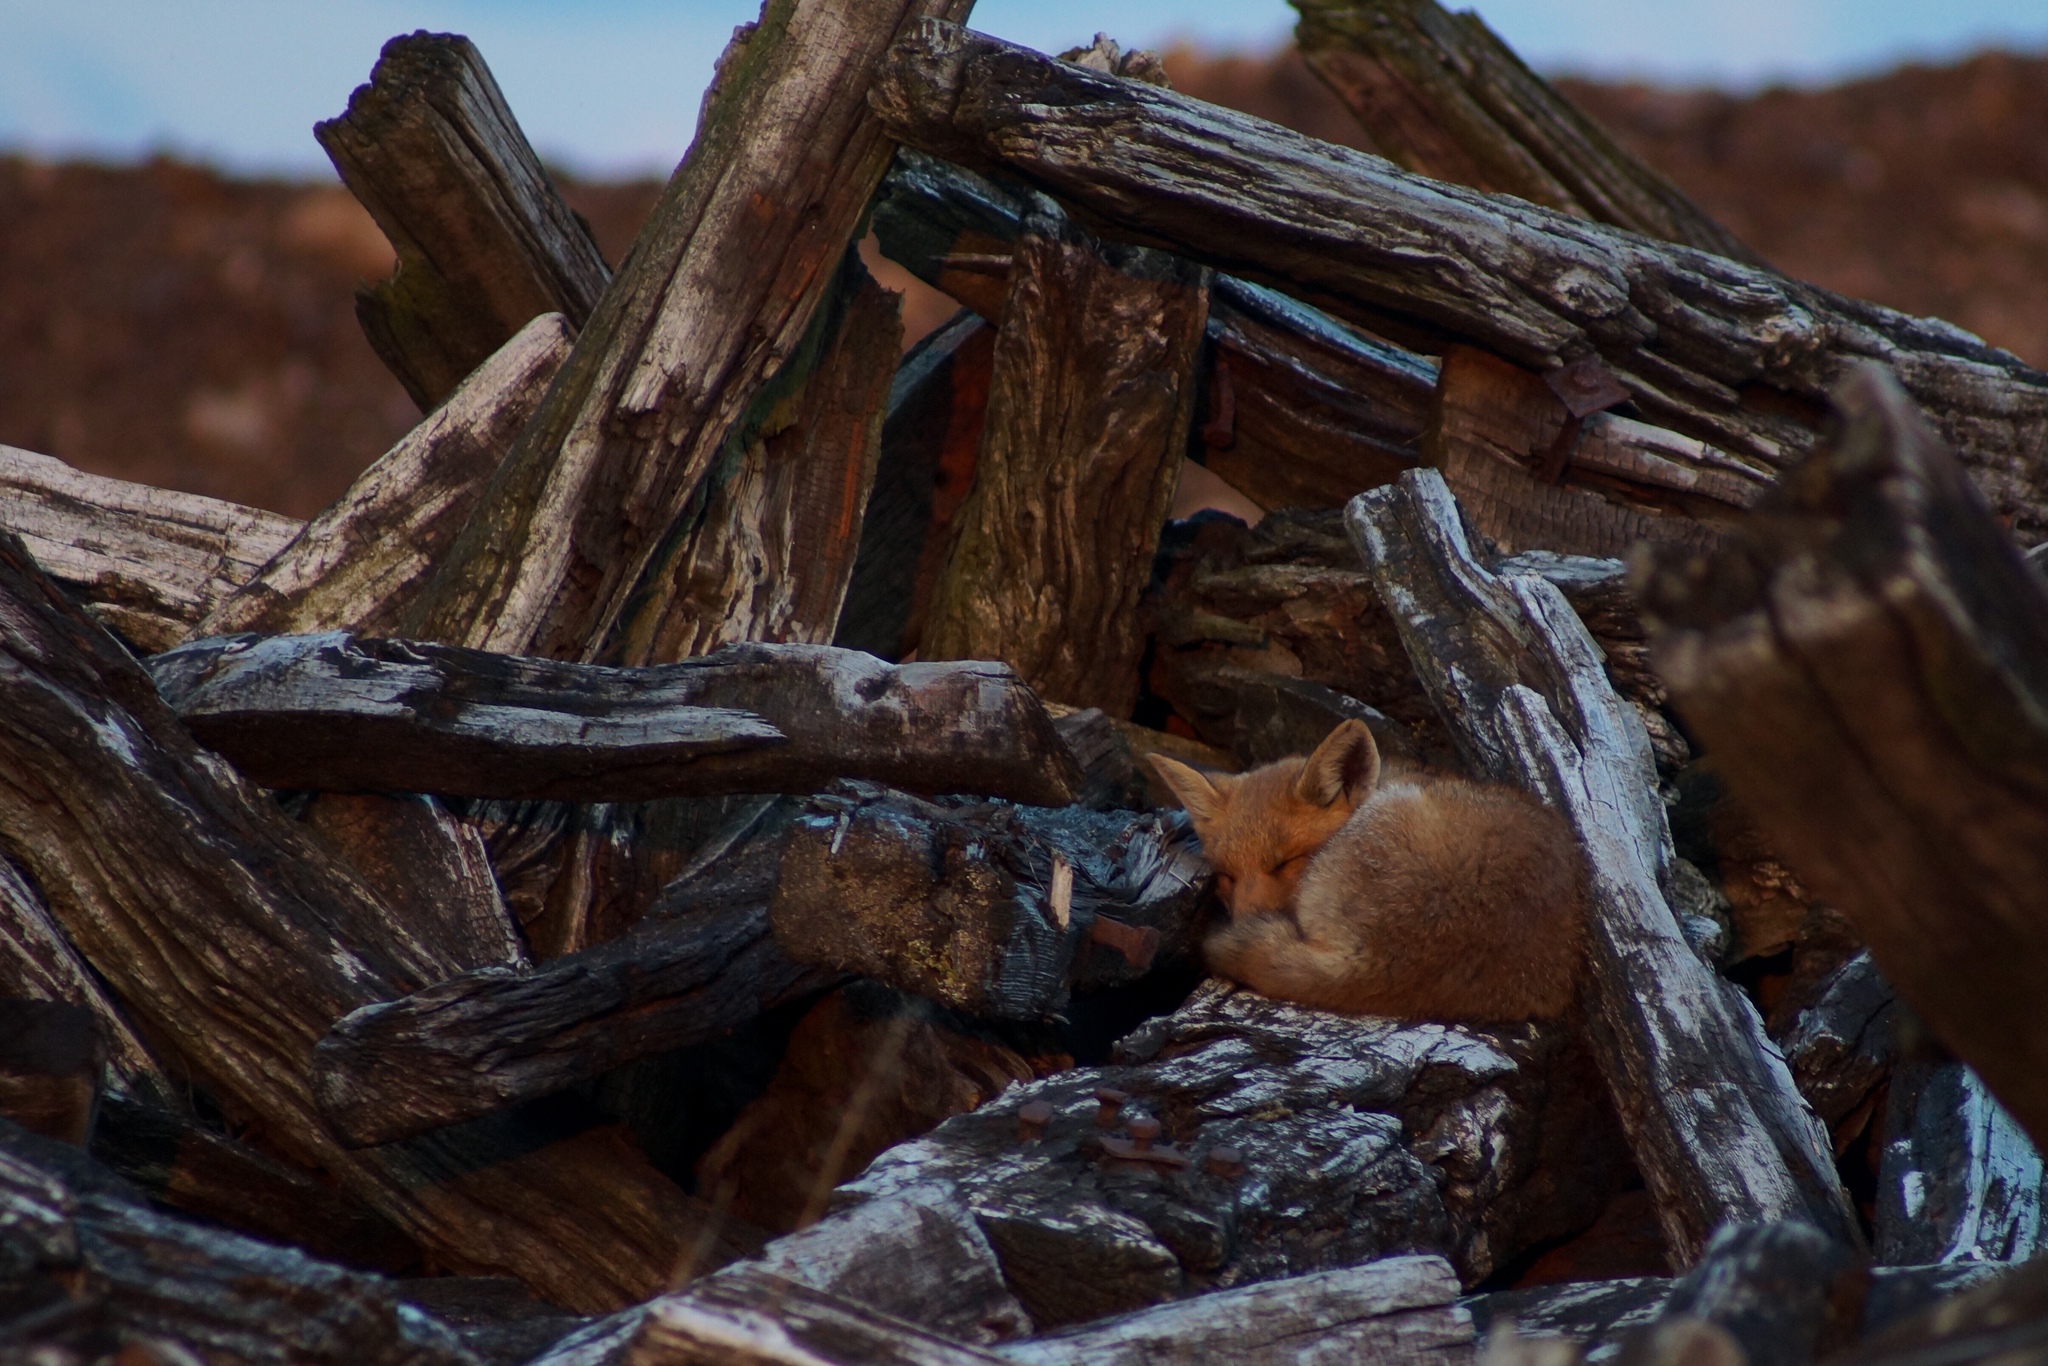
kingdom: Animalia
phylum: Chordata
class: Mammalia
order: Carnivora
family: Canidae
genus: Vulpes
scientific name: Vulpes vulpes
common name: Red fox
